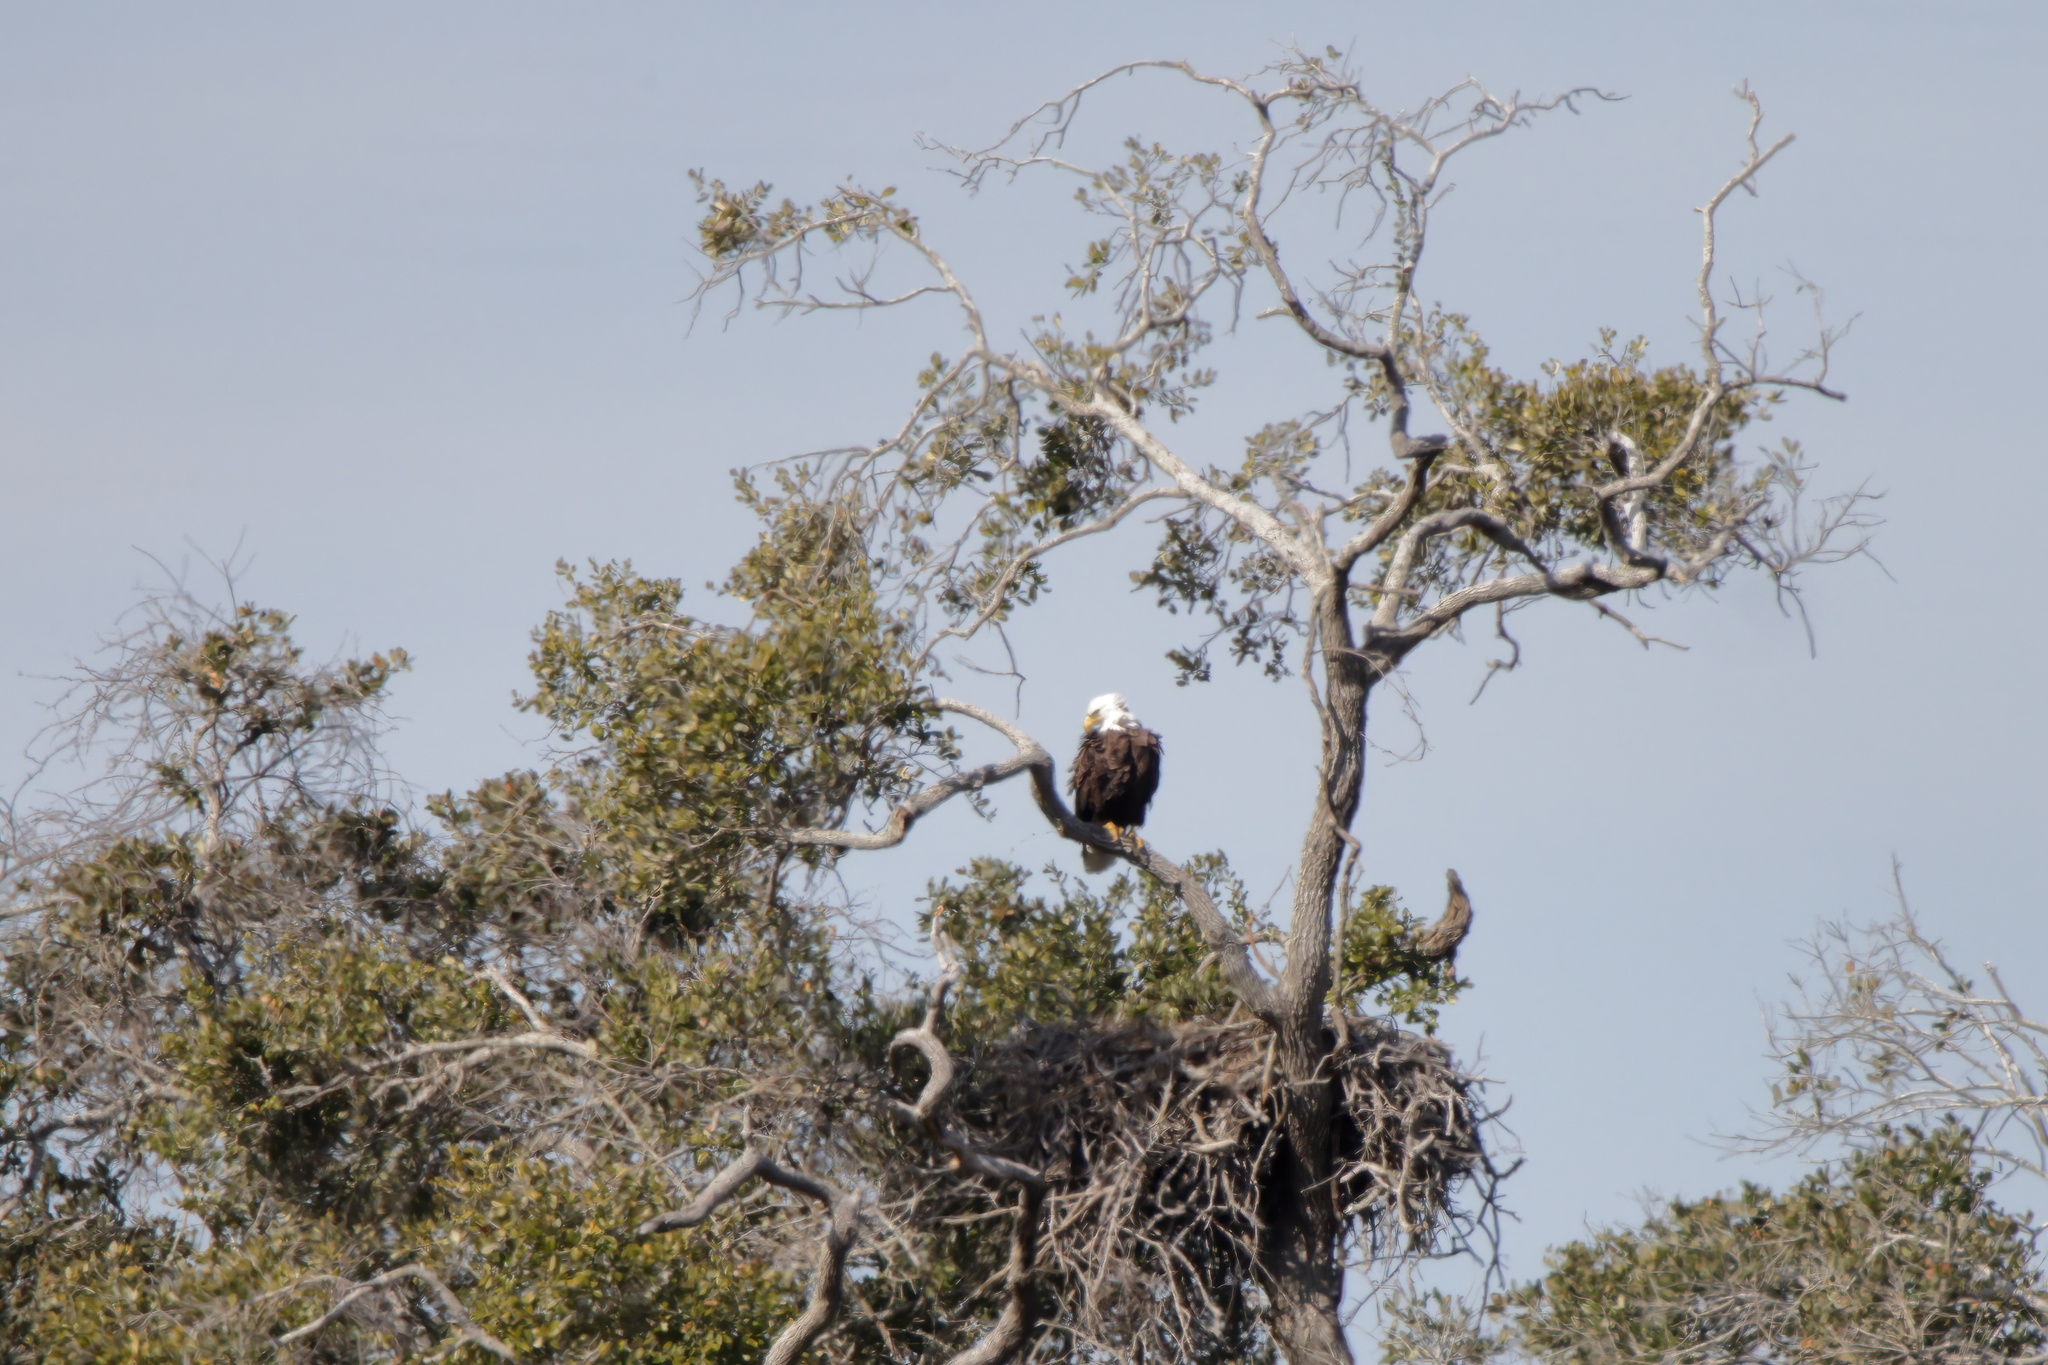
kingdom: Animalia
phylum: Chordata
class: Aves
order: Accipitriformes
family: Accipitridae
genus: Haliaeetus
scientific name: Haliaeetus leucocephalus
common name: Bald eagle
